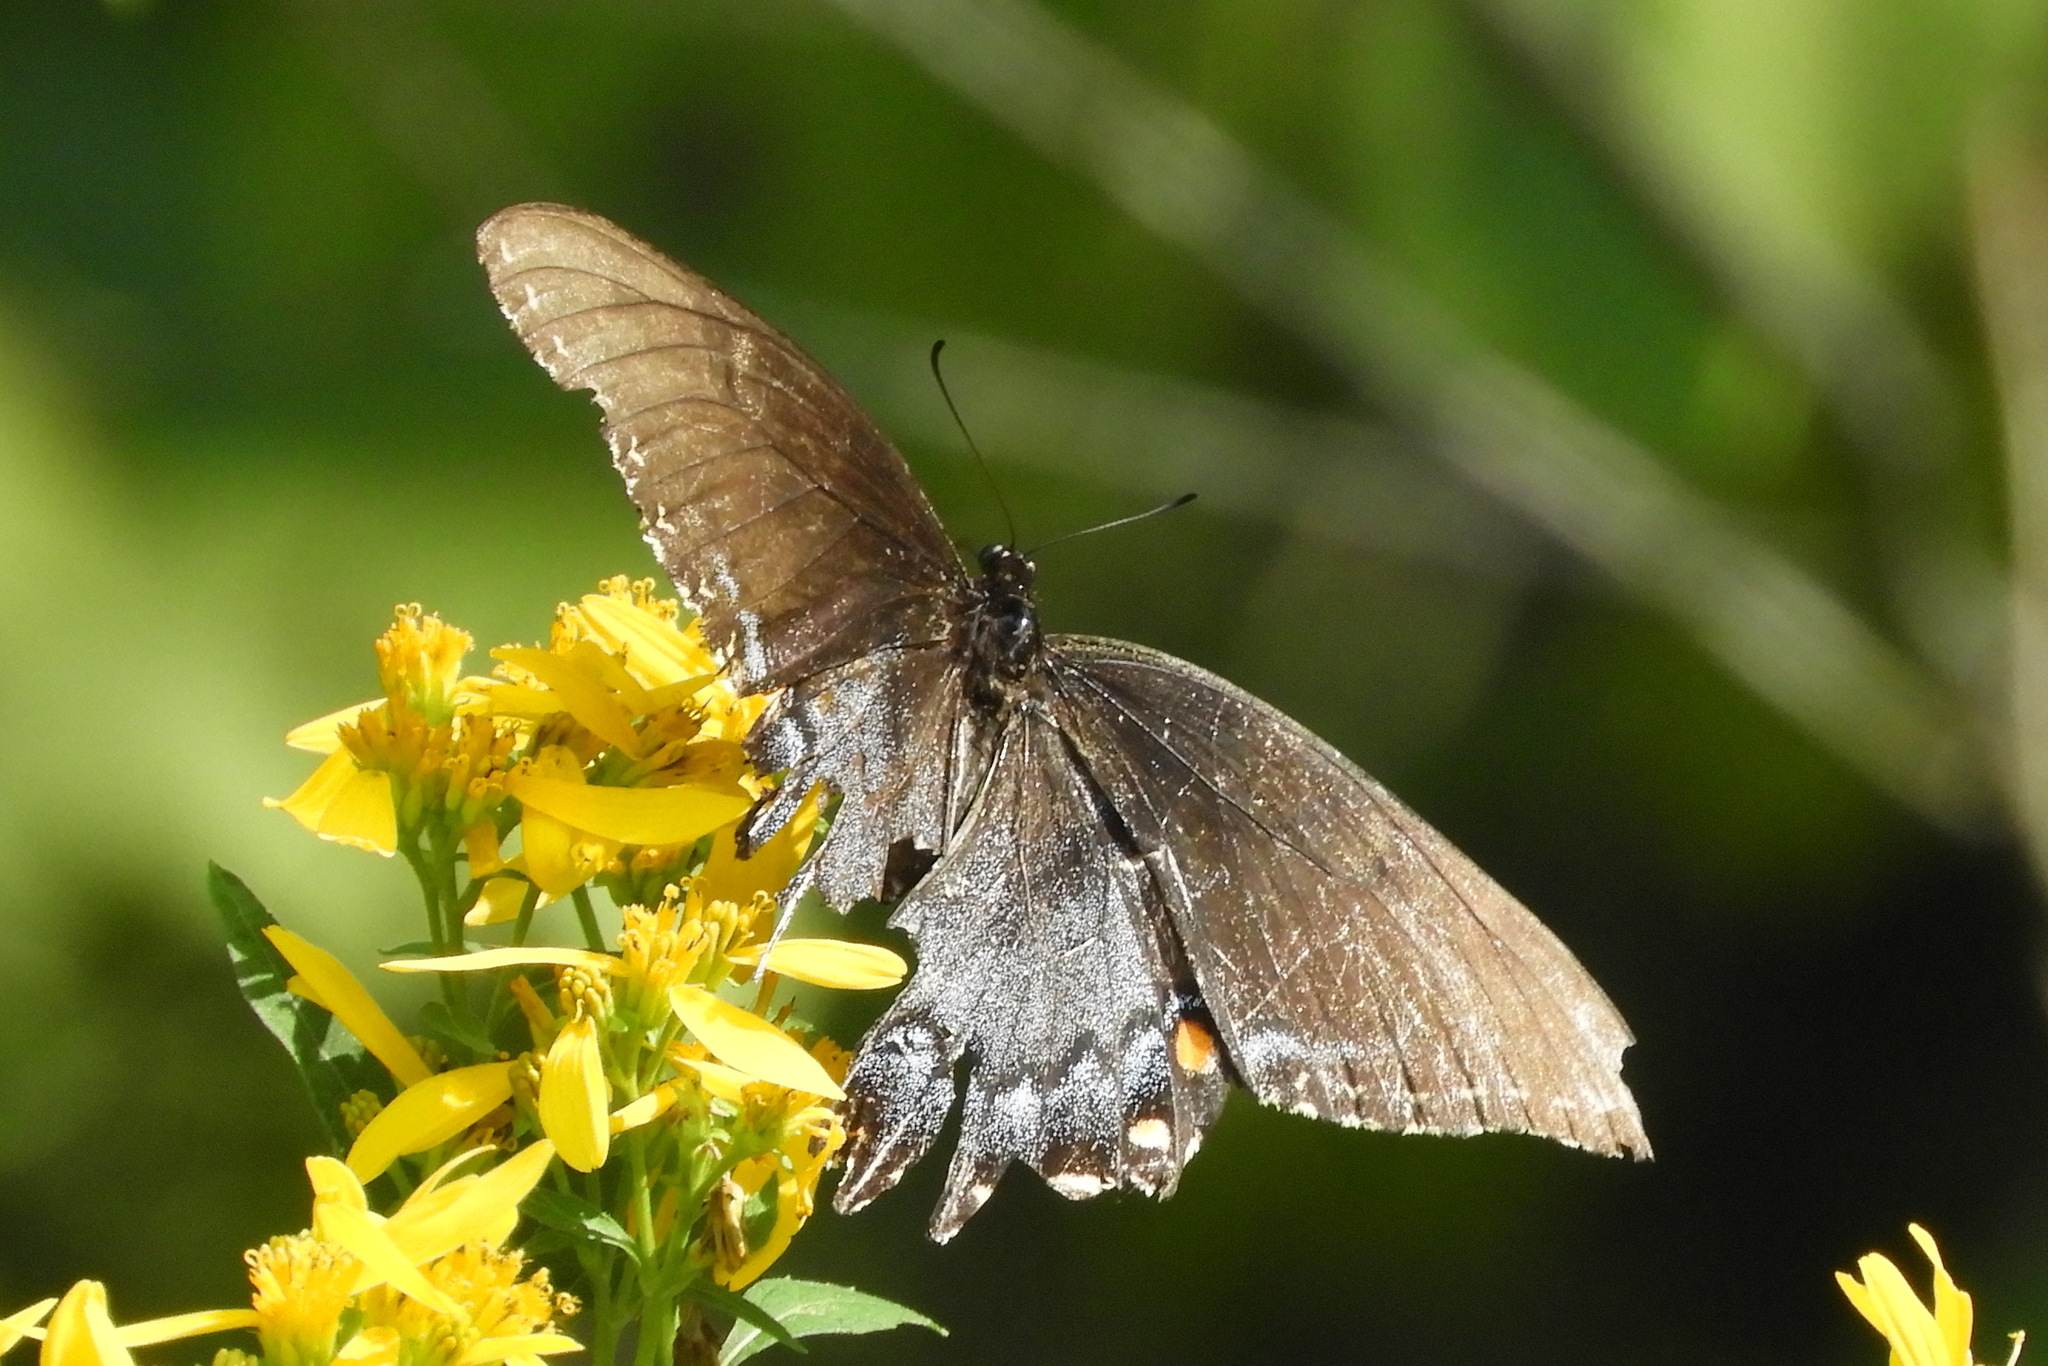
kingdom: Animalia
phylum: Arthropoda
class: Insecta
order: Lepidoptera
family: Papilionidae
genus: Papilio
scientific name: Papilio glaucus
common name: Tiger swallowtail
